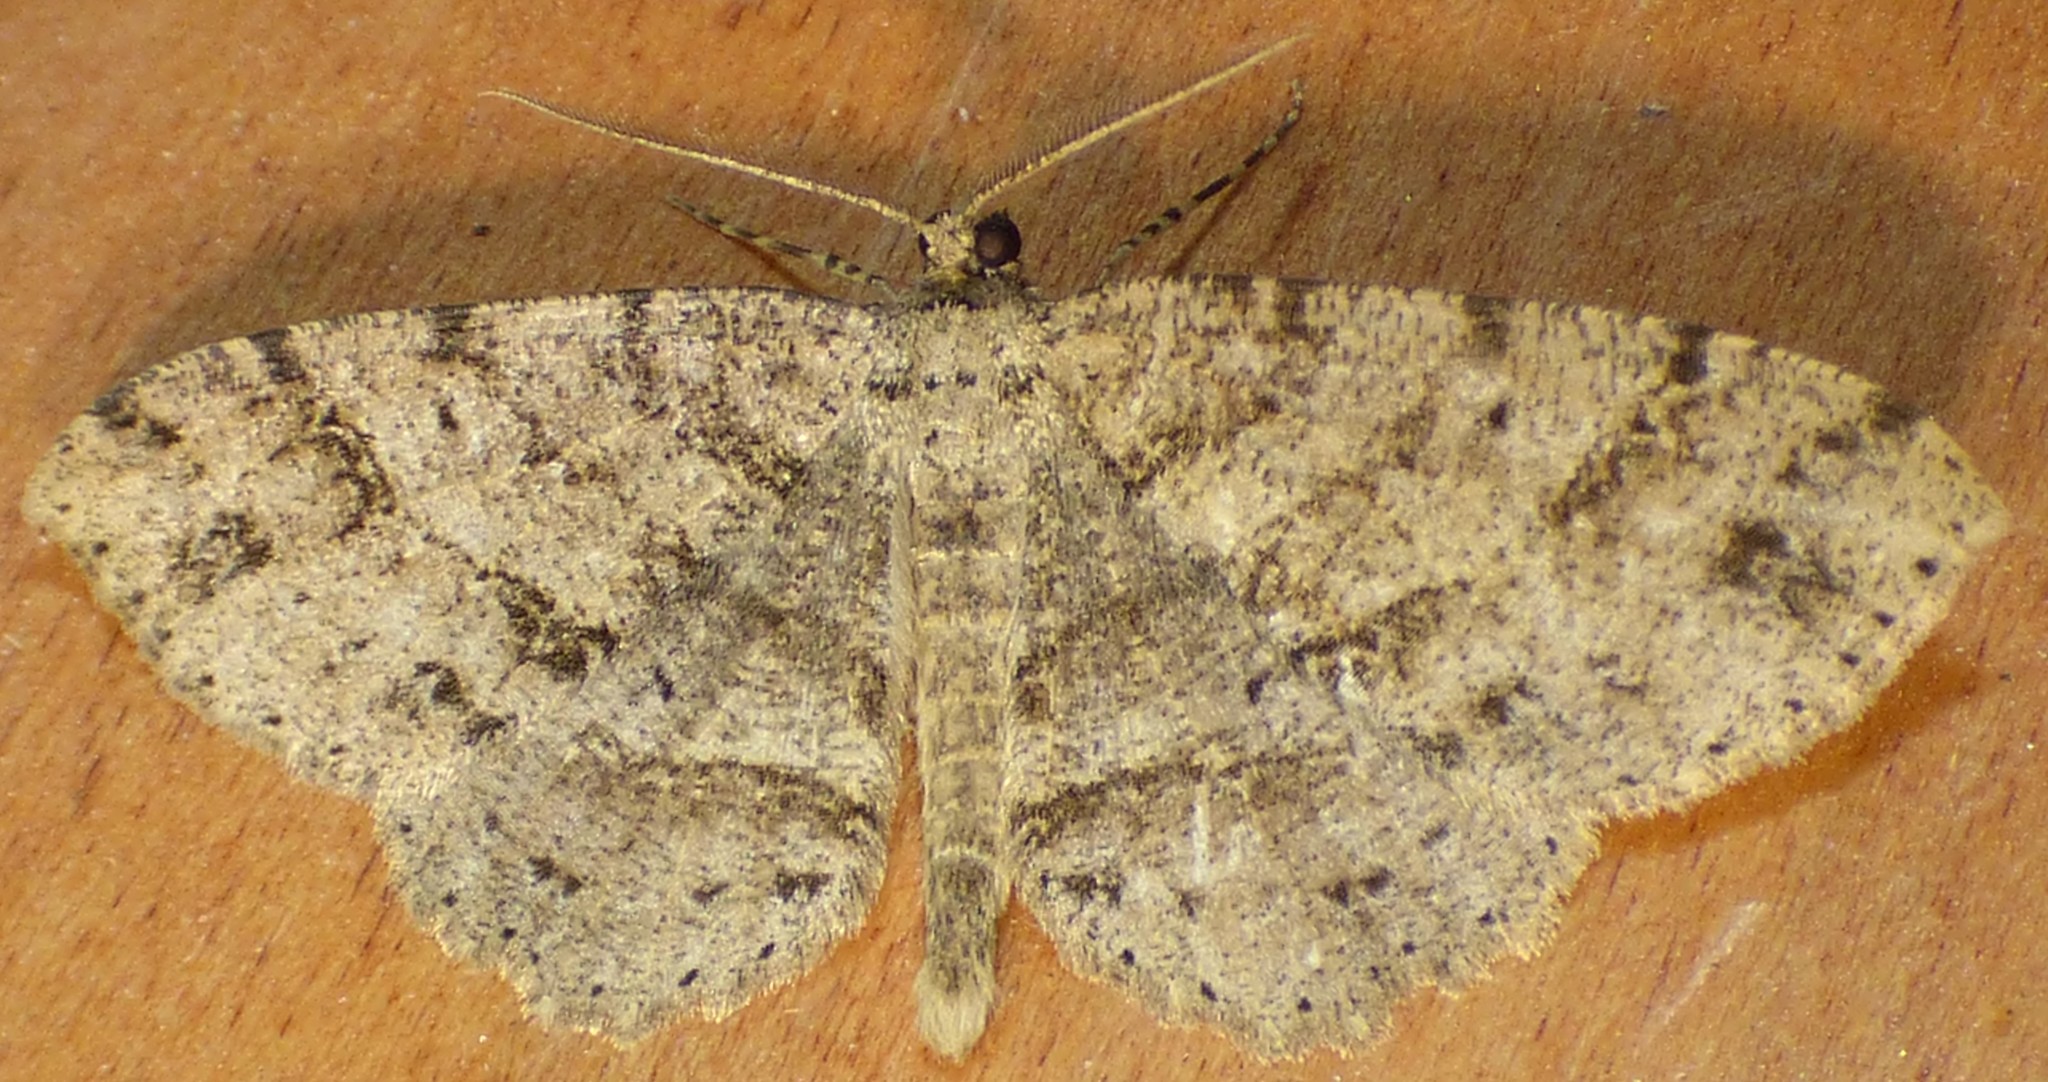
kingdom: Animalia
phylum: Arthropoda
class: Insecta
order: Lepidoptera
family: Geometridae
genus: Melanolophia
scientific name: Melanolophia canadaria
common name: Canadian melanolophia
